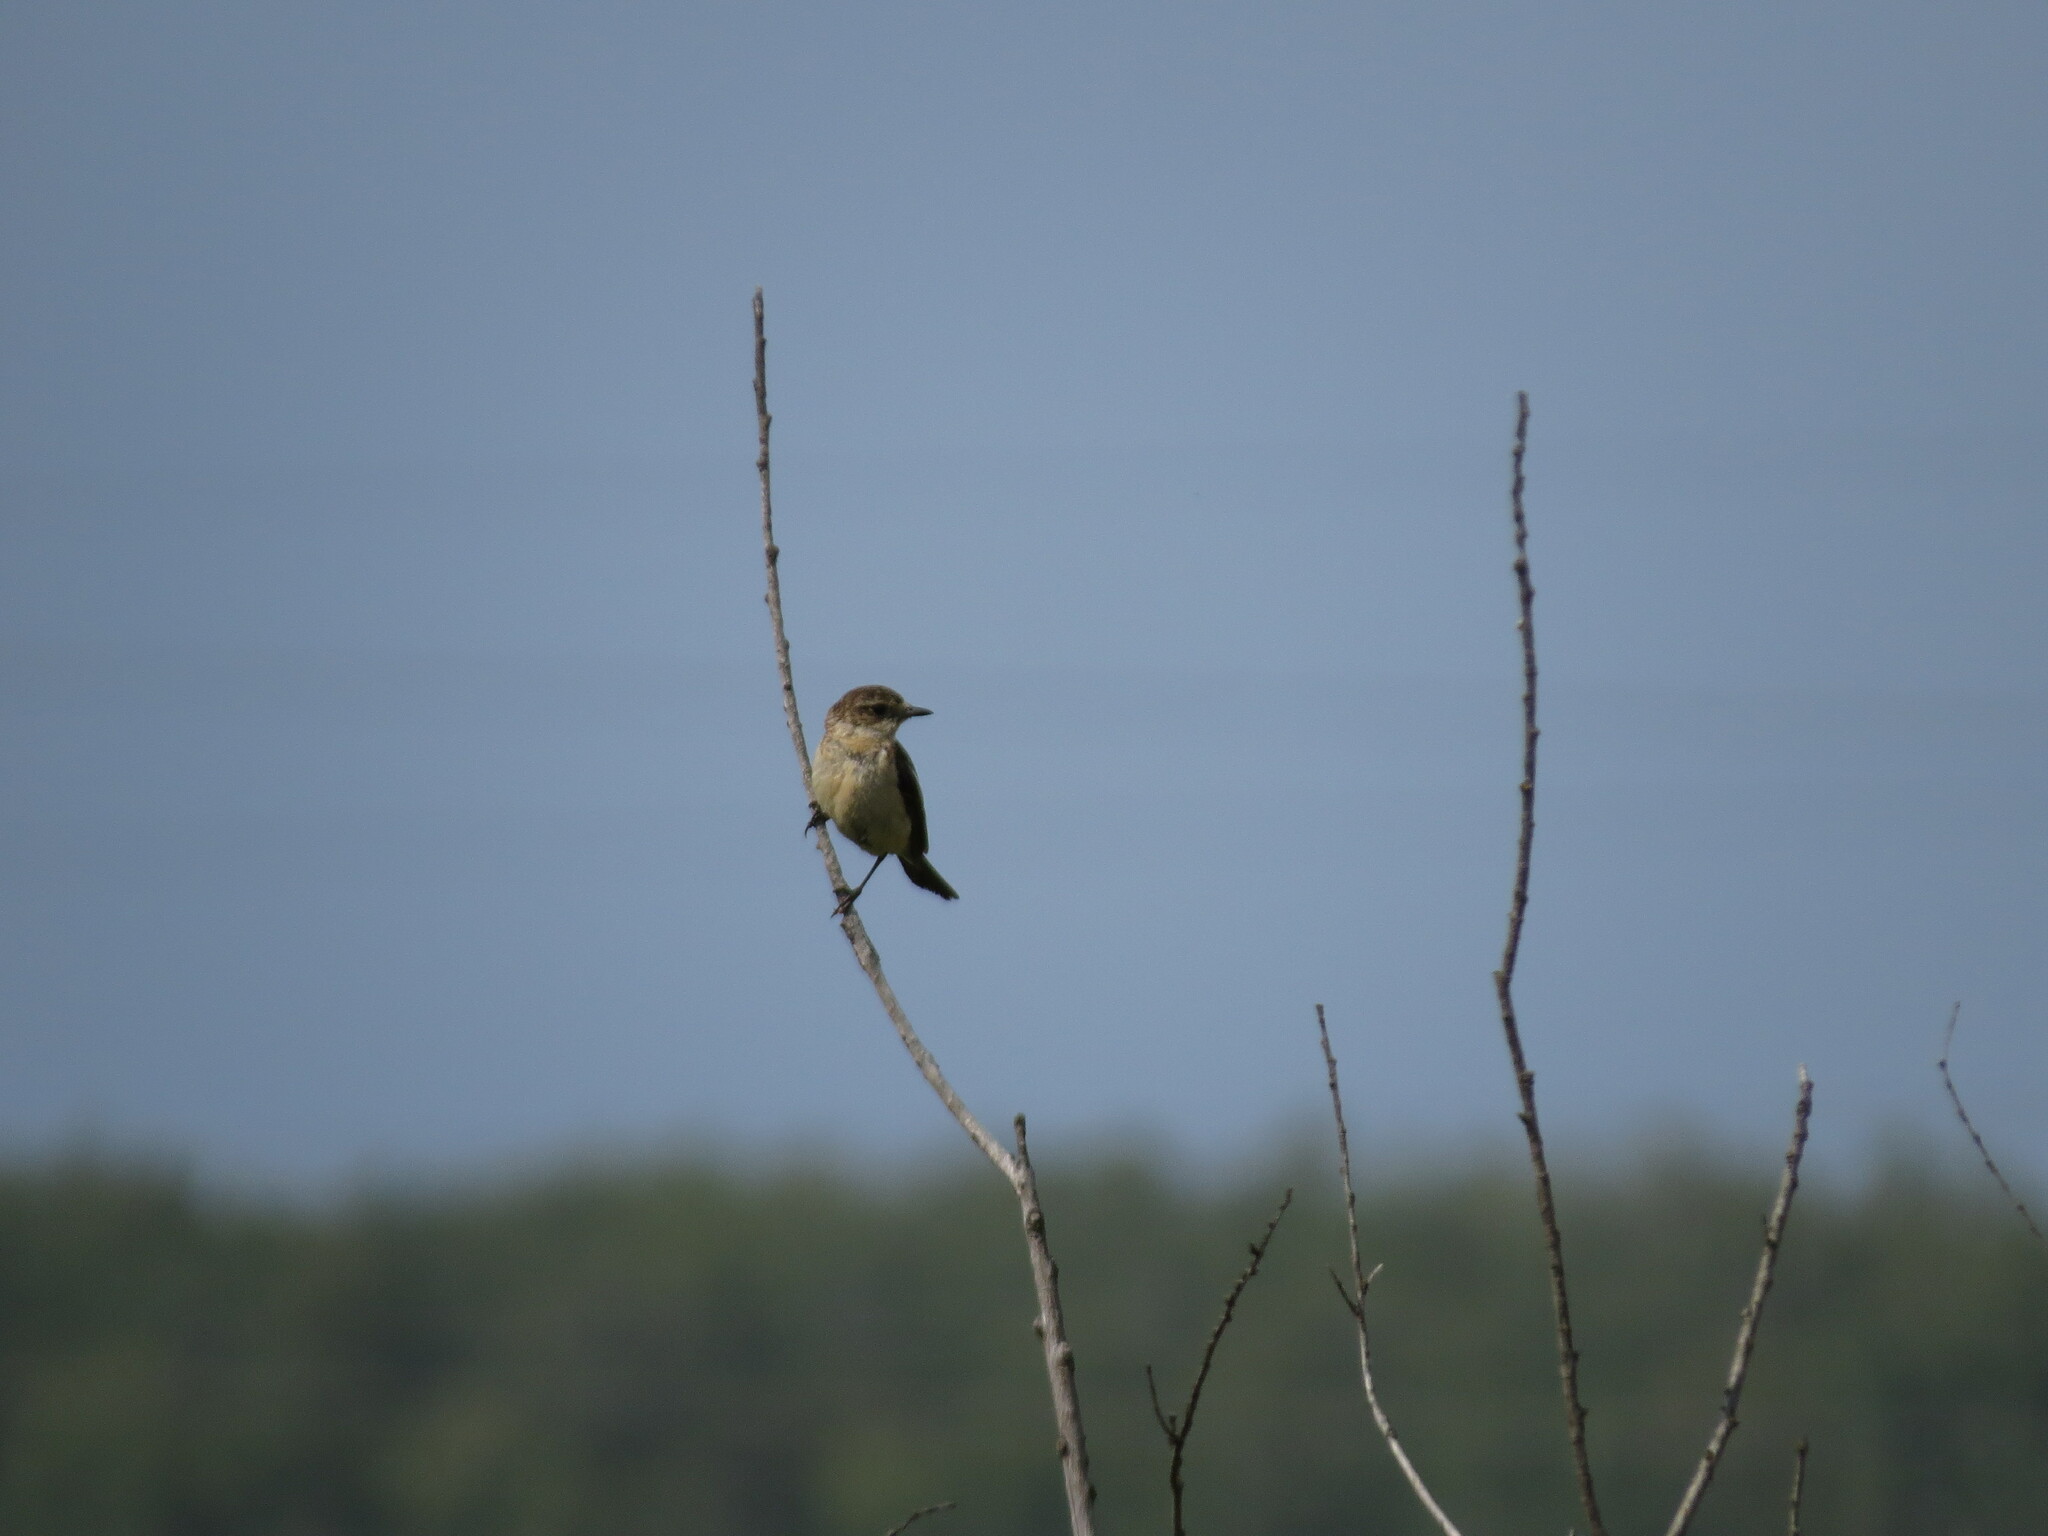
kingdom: Animalia
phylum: Chordata
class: Aves
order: Passeriformes
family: Muscicapidae
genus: Saxicola
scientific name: Saxicola maurus
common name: Siberian stonechat
